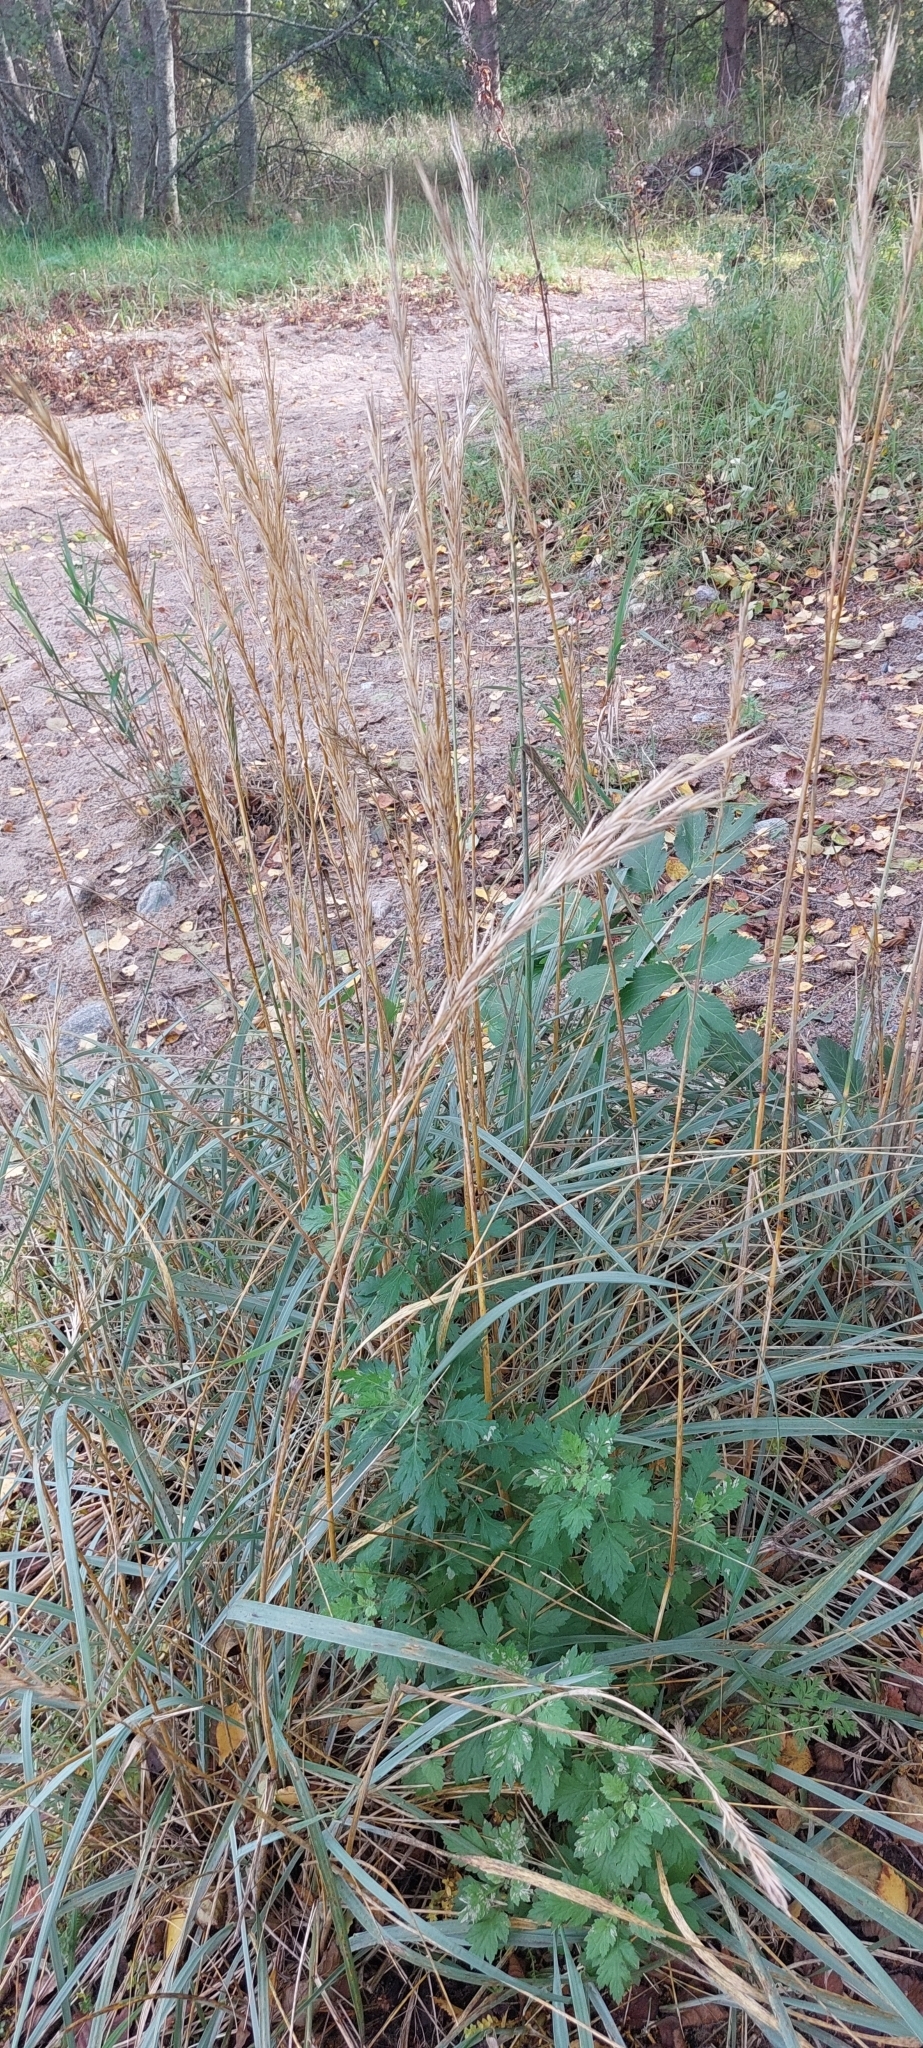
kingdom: Plantae
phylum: Tracheophyta
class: Liliopsida
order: Poales
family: Poaceae
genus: Leymus
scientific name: Leymus arenarius
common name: Lyme-grass
